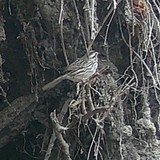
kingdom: Animalia
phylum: Chordata
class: Aves
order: Passeriformes
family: Passerellidae
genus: Melospiza
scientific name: Melospiza melodia
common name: Song sparrow
